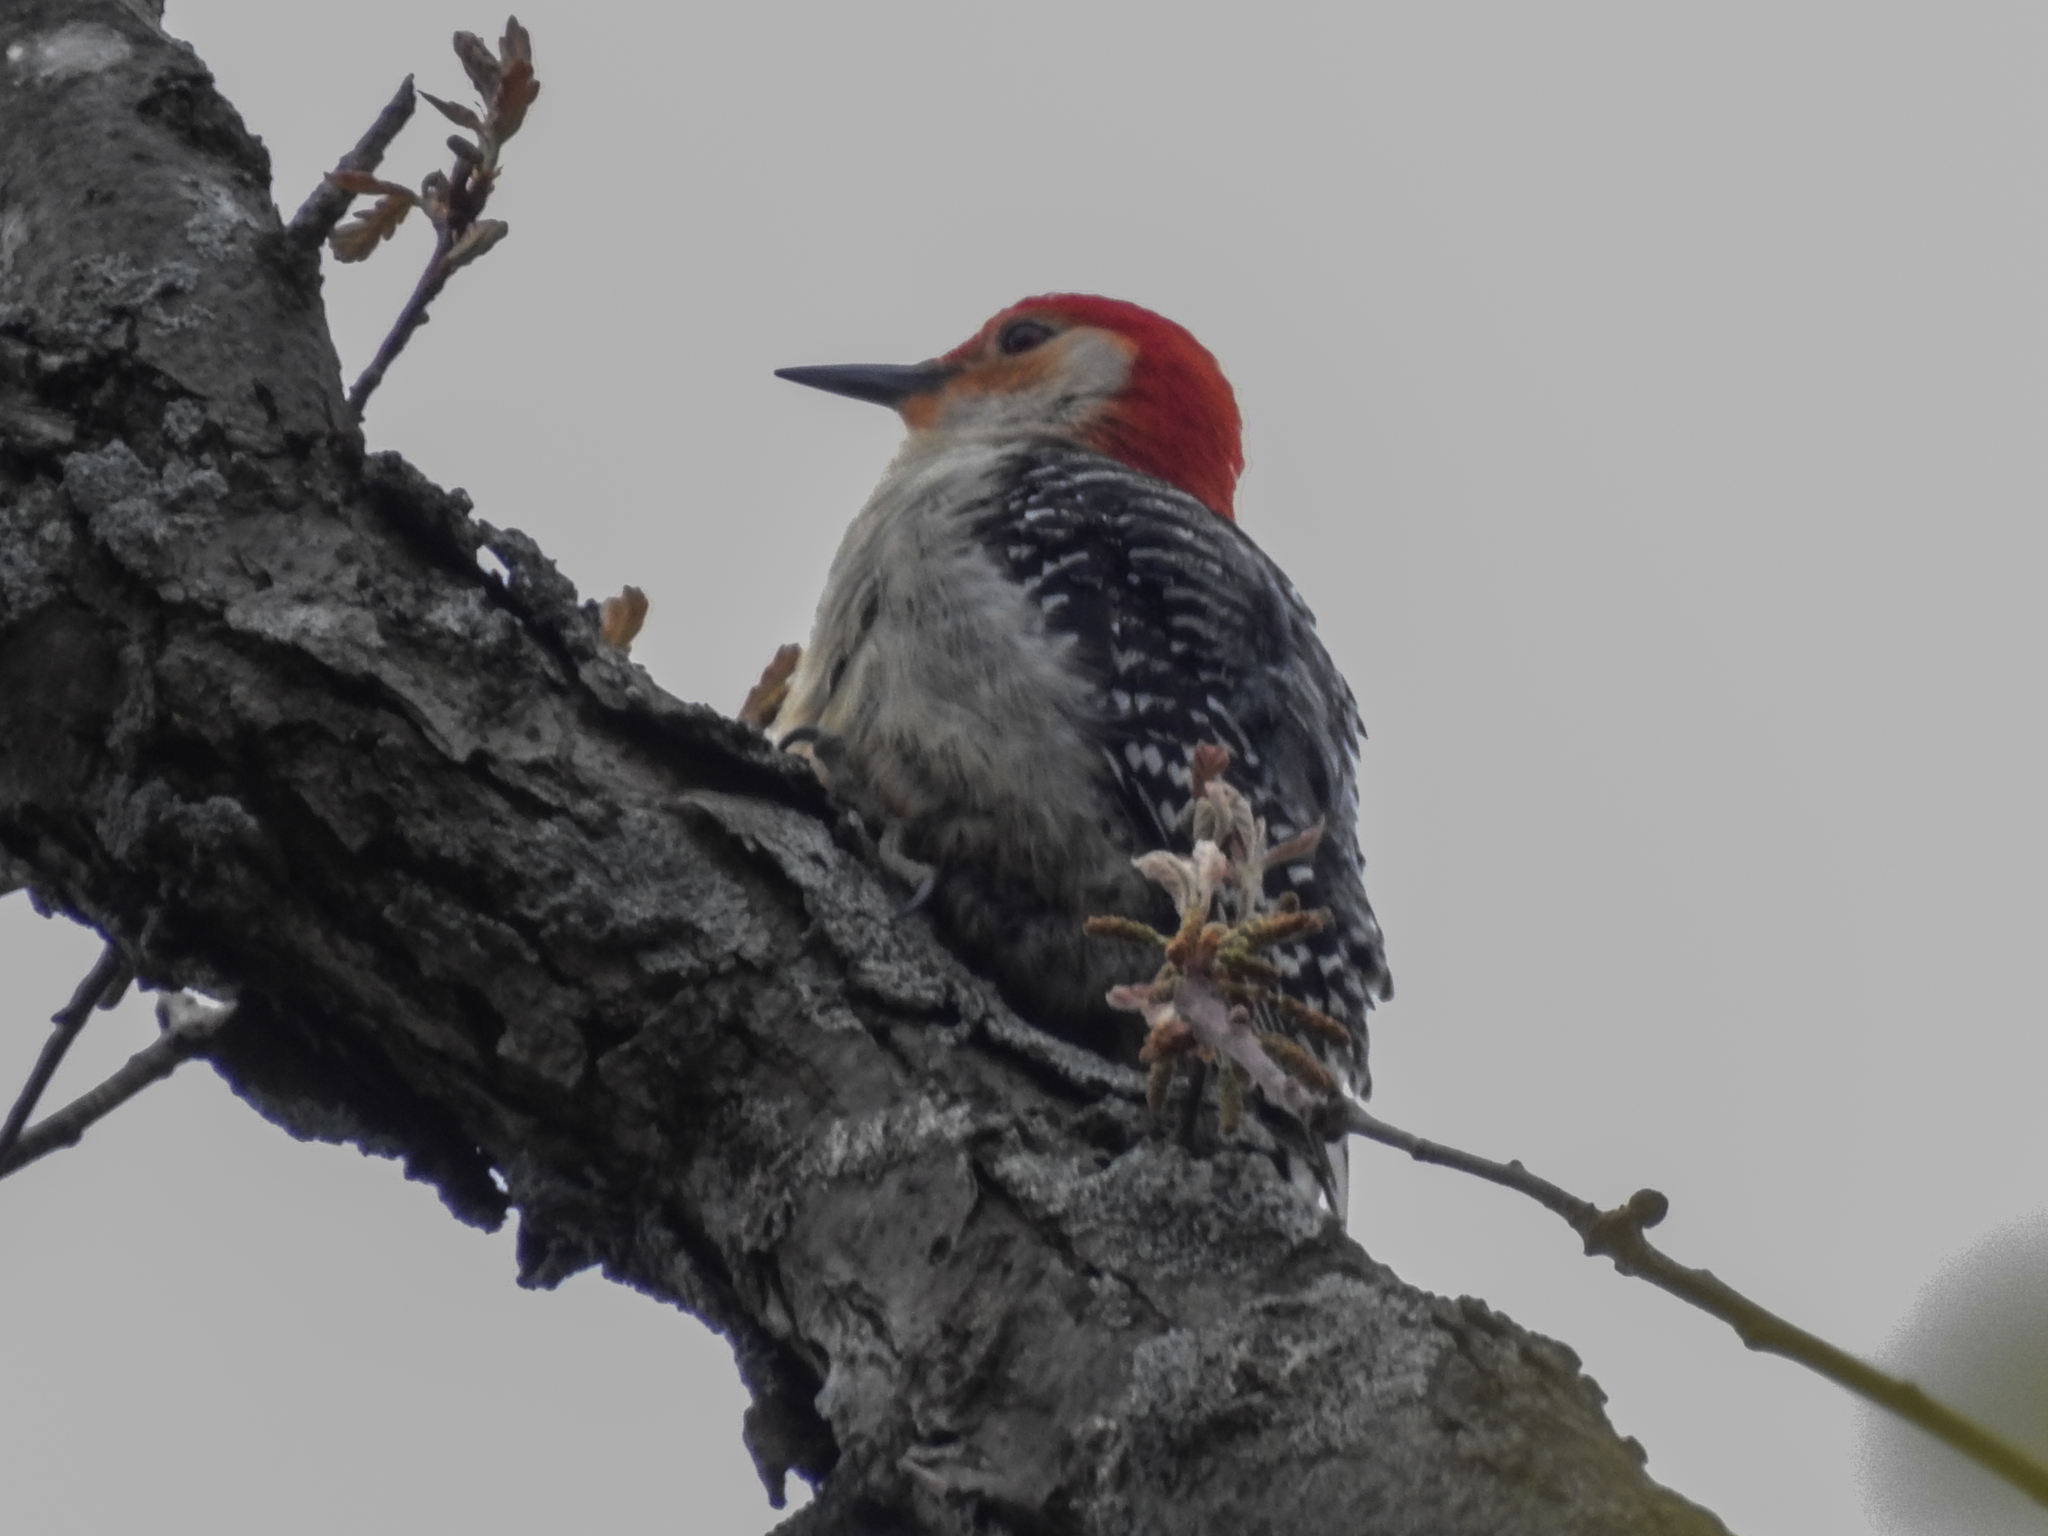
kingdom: Animalia
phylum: Chordata
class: Aves
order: Piciformes
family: Picidae
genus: Melanerpes
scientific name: Melanerpes carolinus
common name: Red-bellied woodpecker
